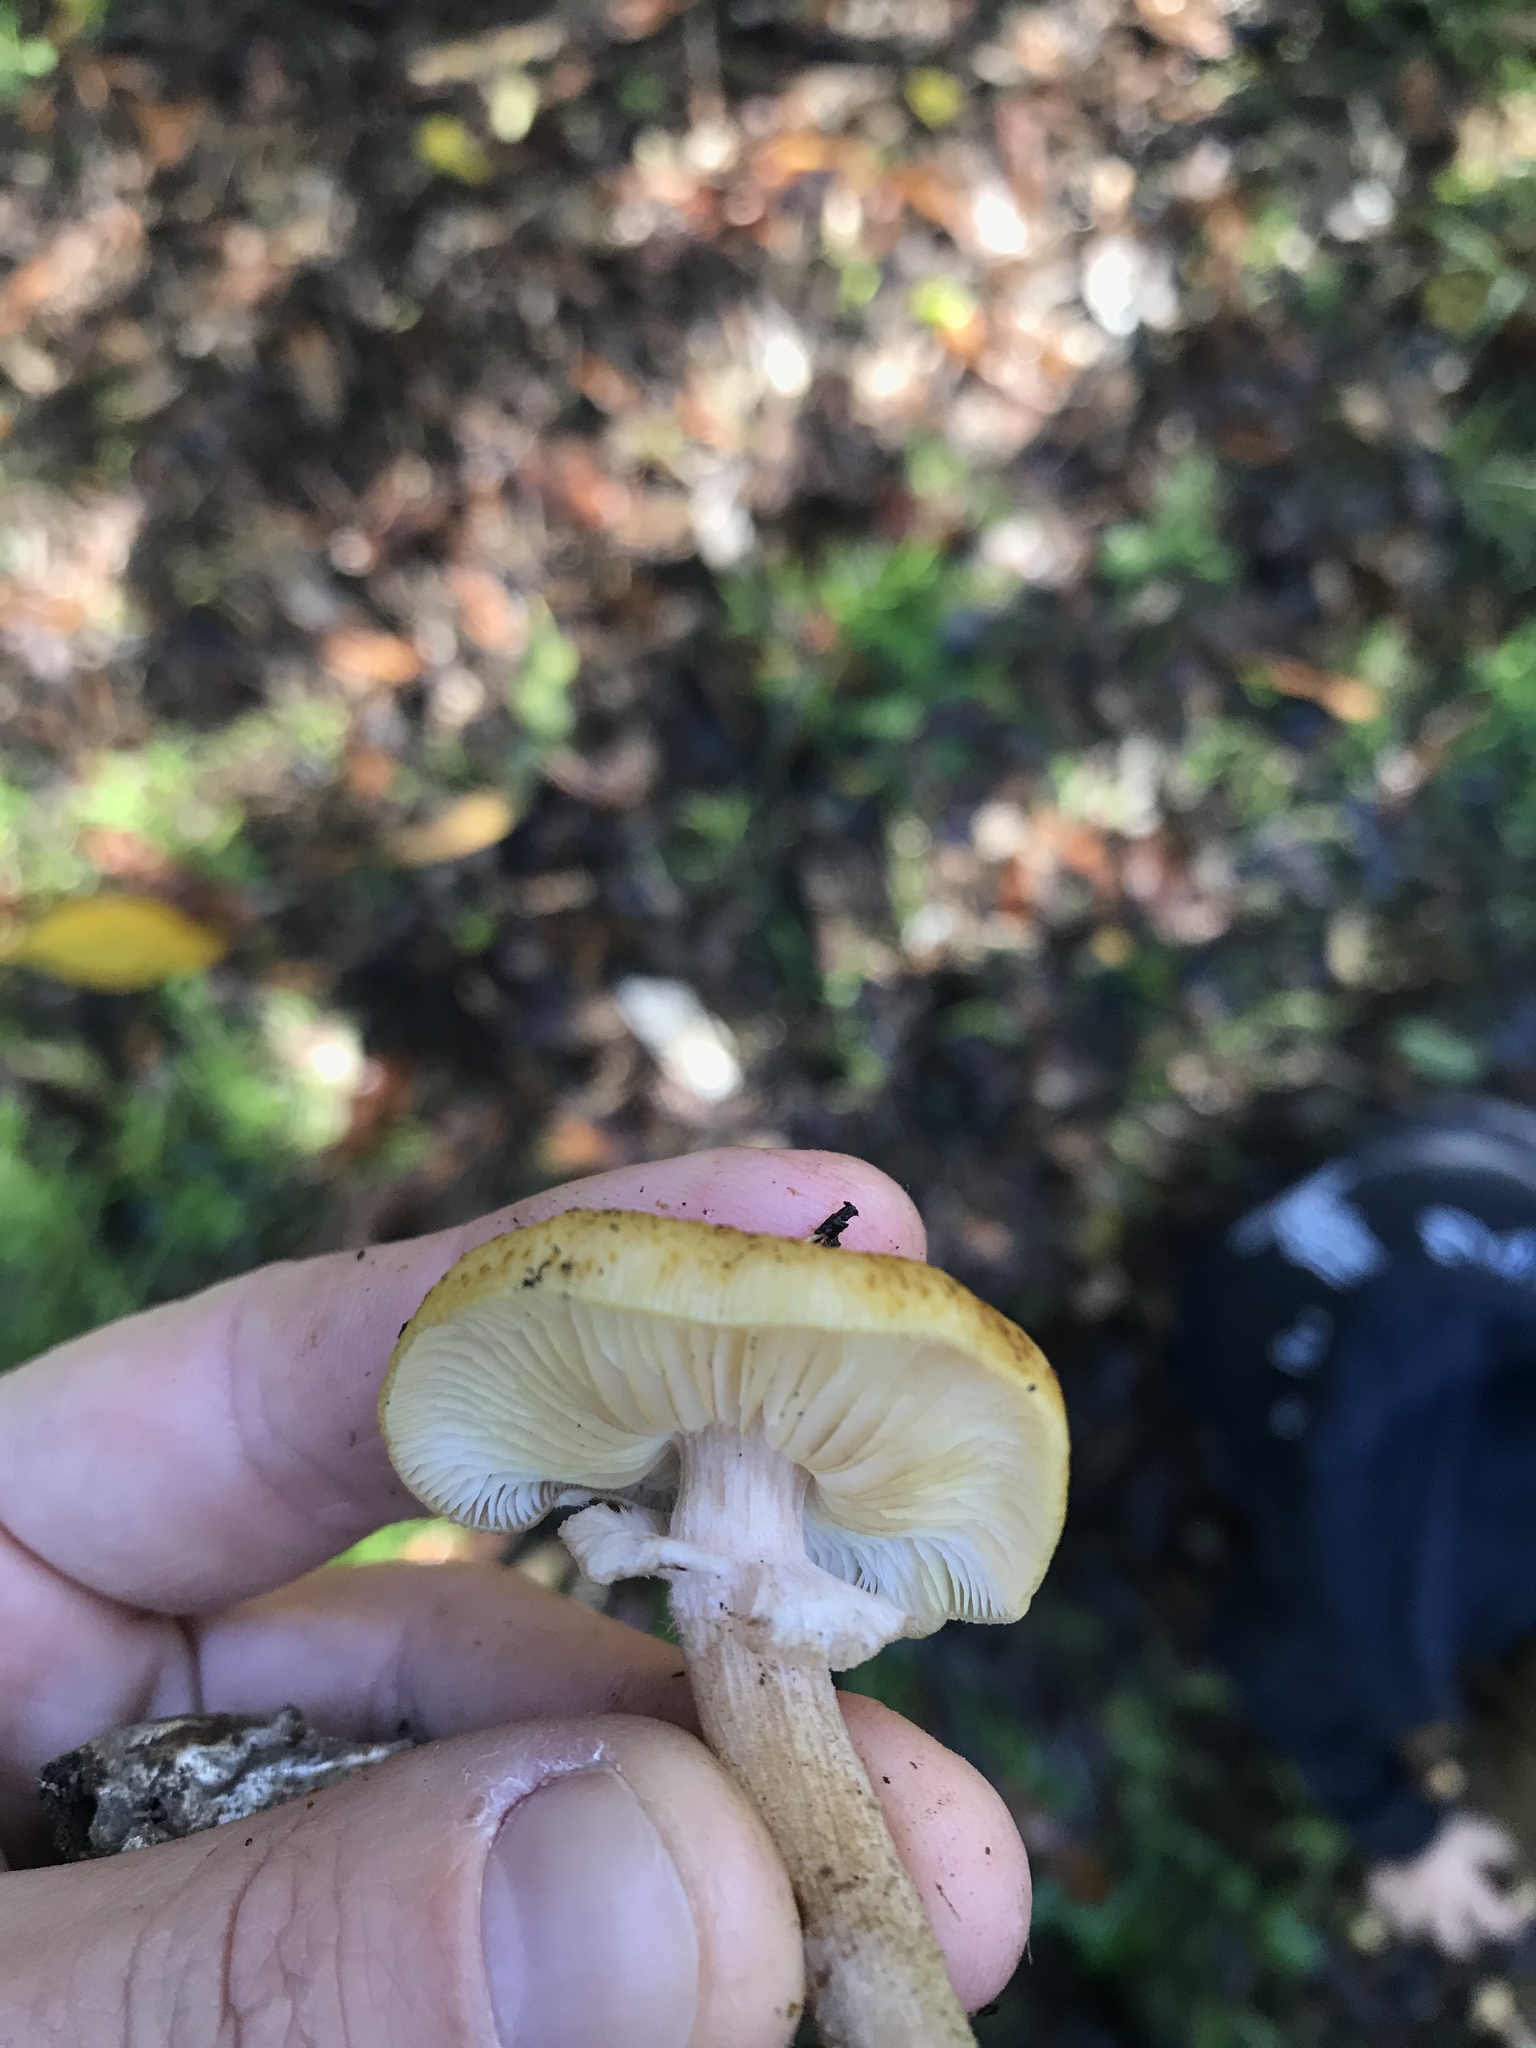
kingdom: Fungi
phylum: Basidiomycota
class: Agaricomycetes
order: Agaricales
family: Physalacriaceae
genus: Armillaria
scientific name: Armillaria limonea
